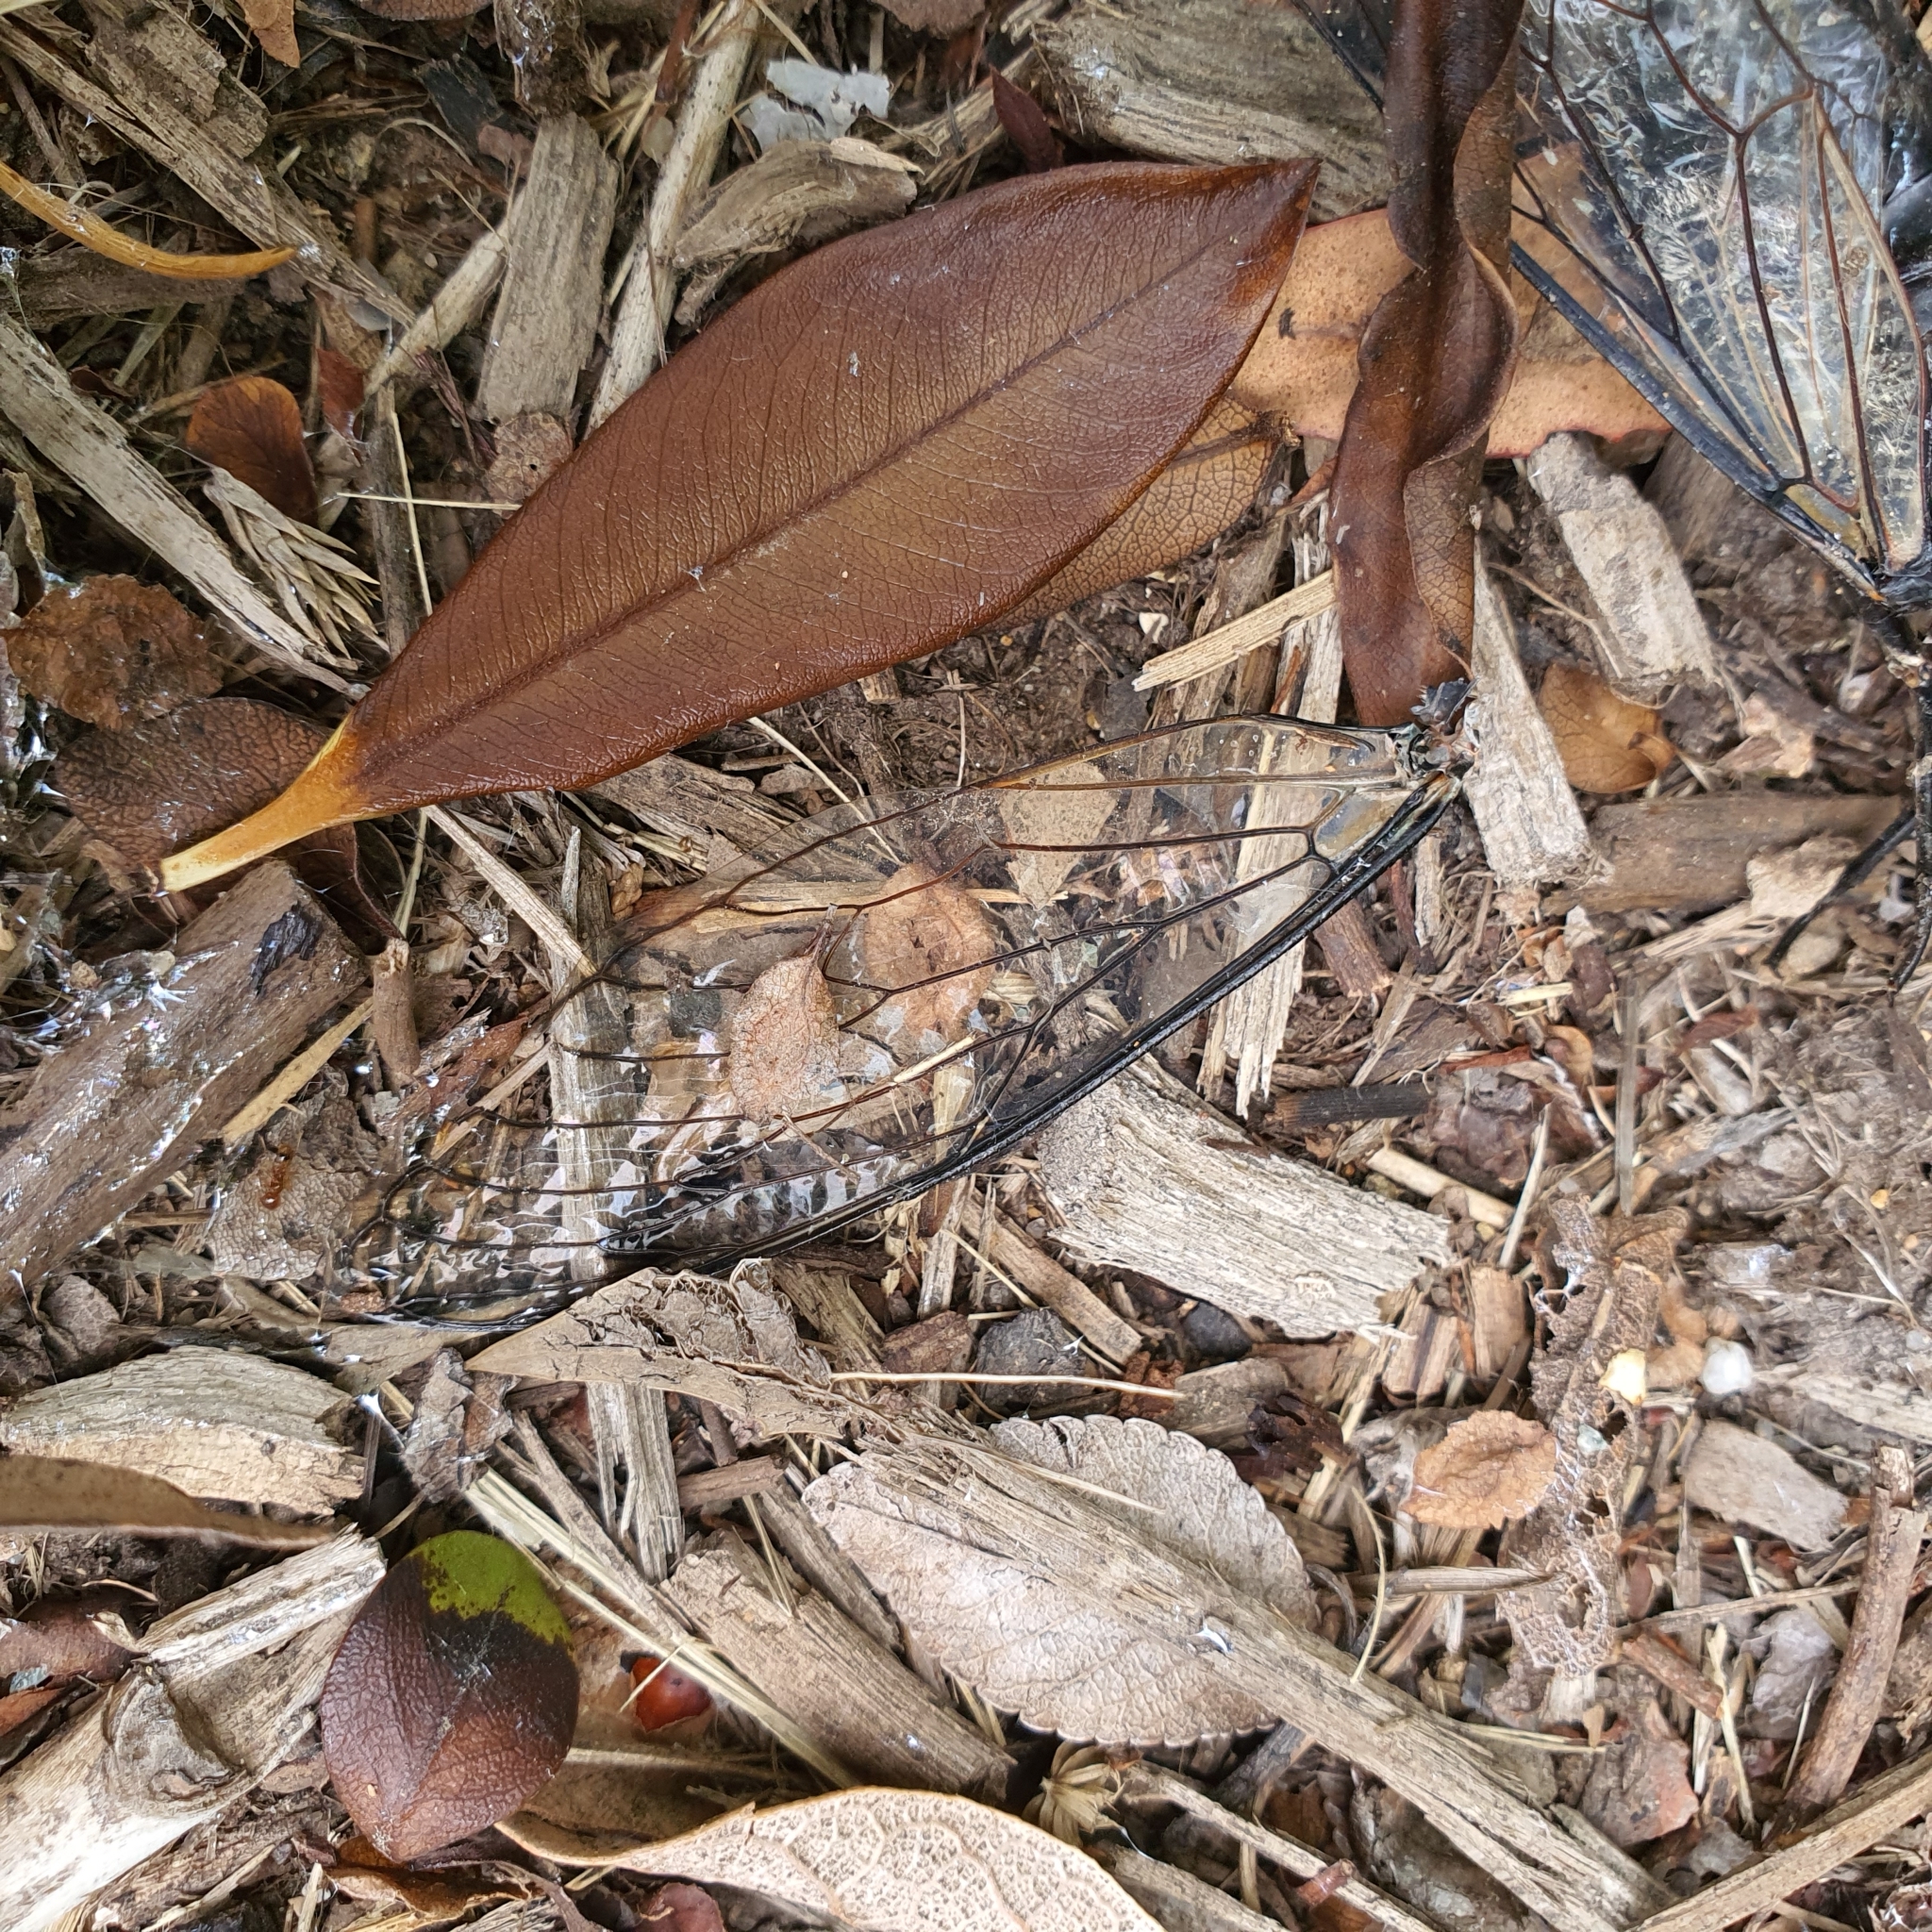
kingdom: Animalia
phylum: Arthropoda
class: Insecta
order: Hemiptera
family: Cicadidae
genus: Psaltoda
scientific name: Psaltoda moerens
